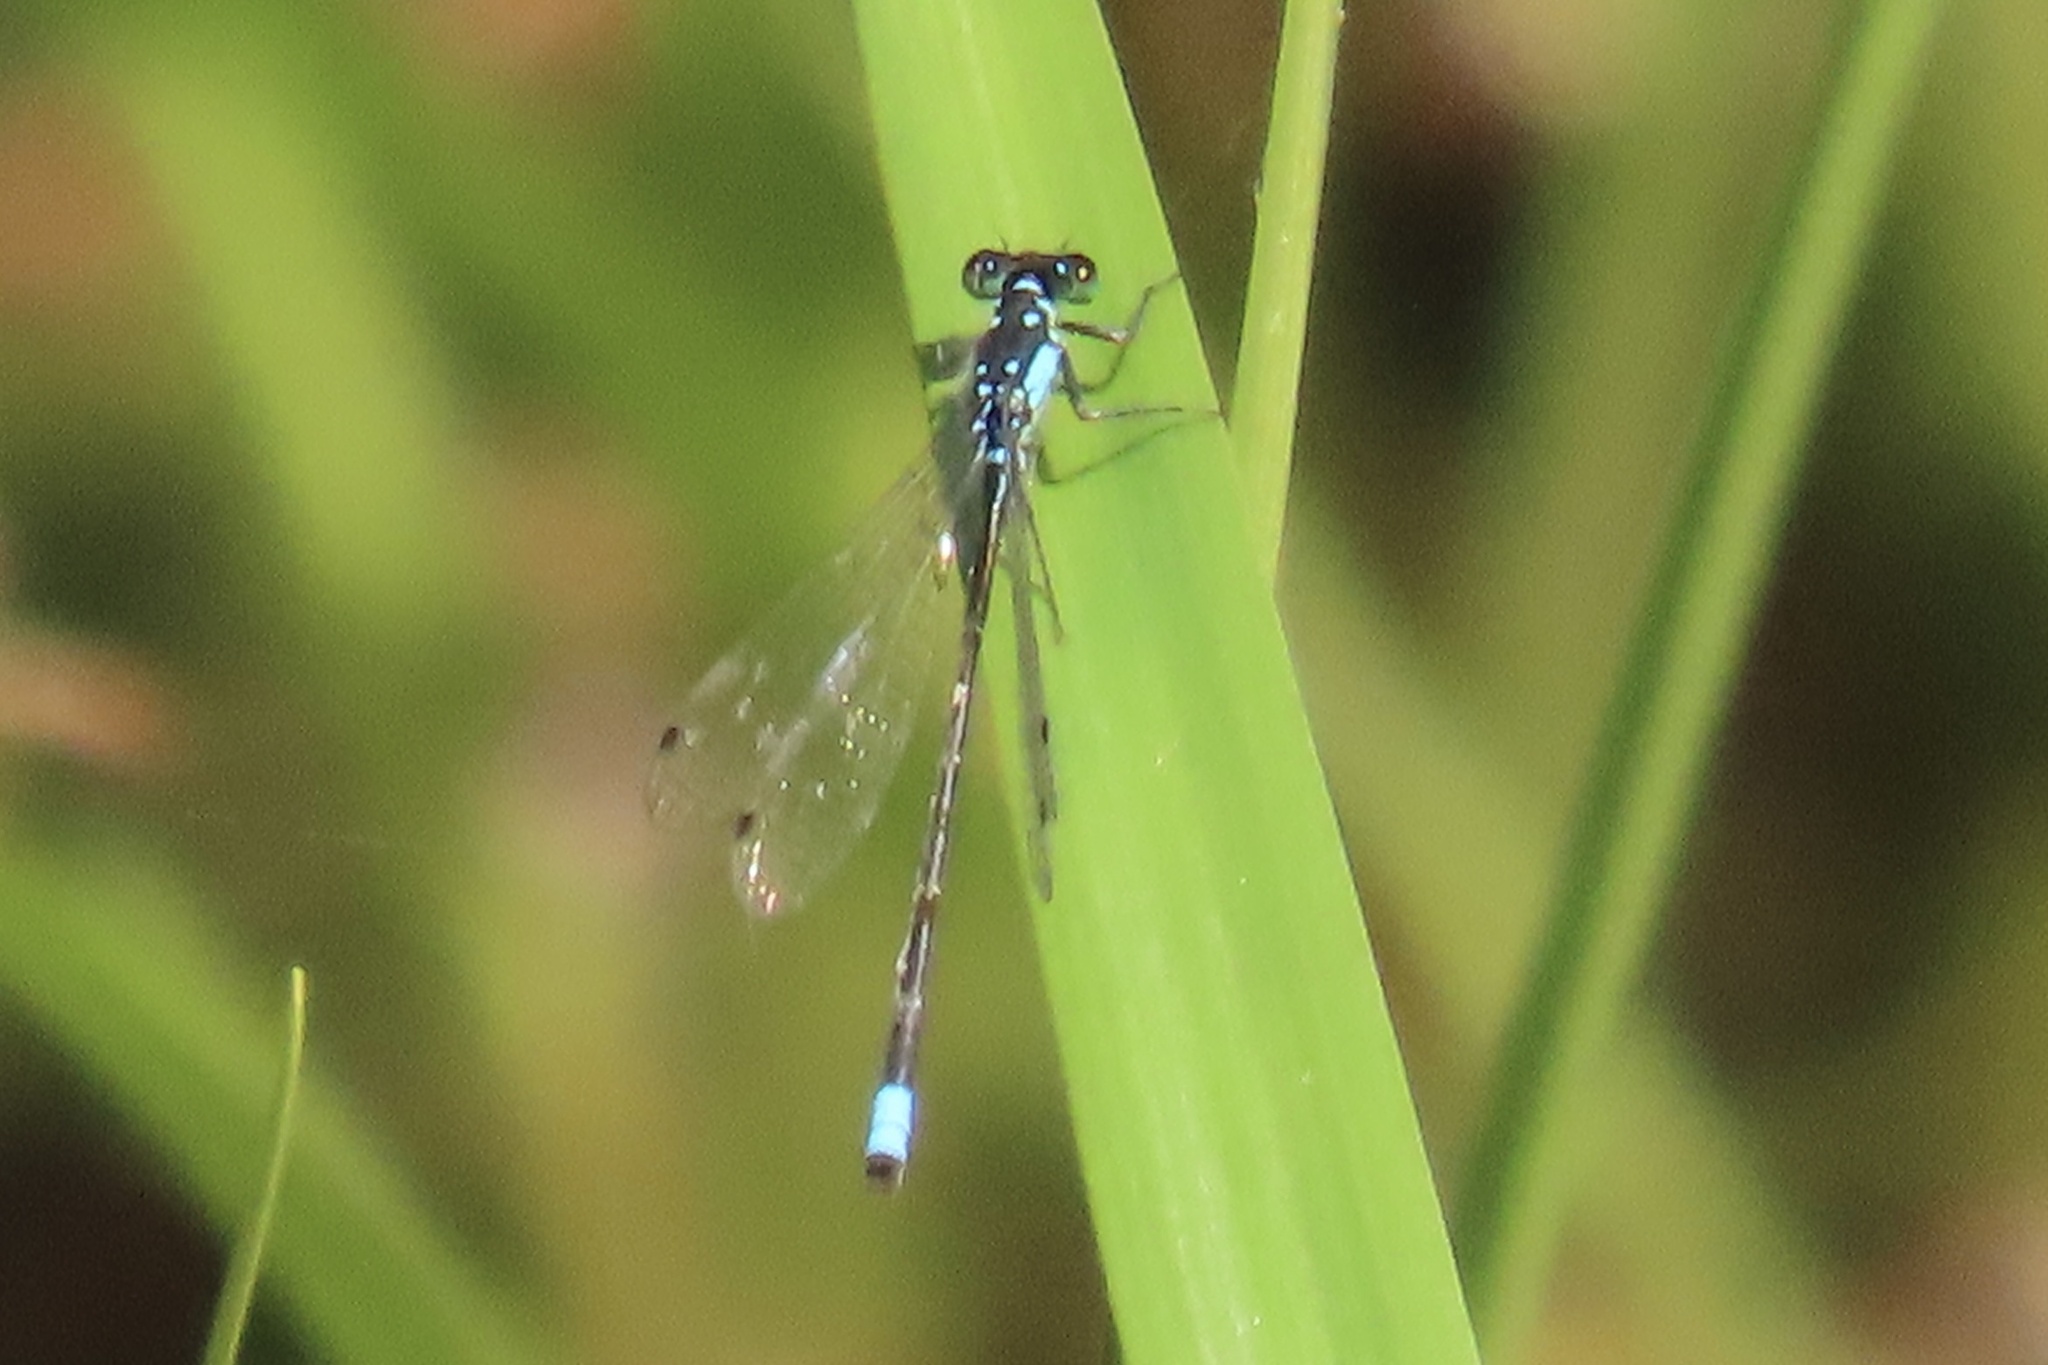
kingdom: Animalia
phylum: Arthropoda
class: Insecta
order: Odonata
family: Coenagrionidae
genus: Ischnura
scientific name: Ischnura cervula
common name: Pacific forktail
